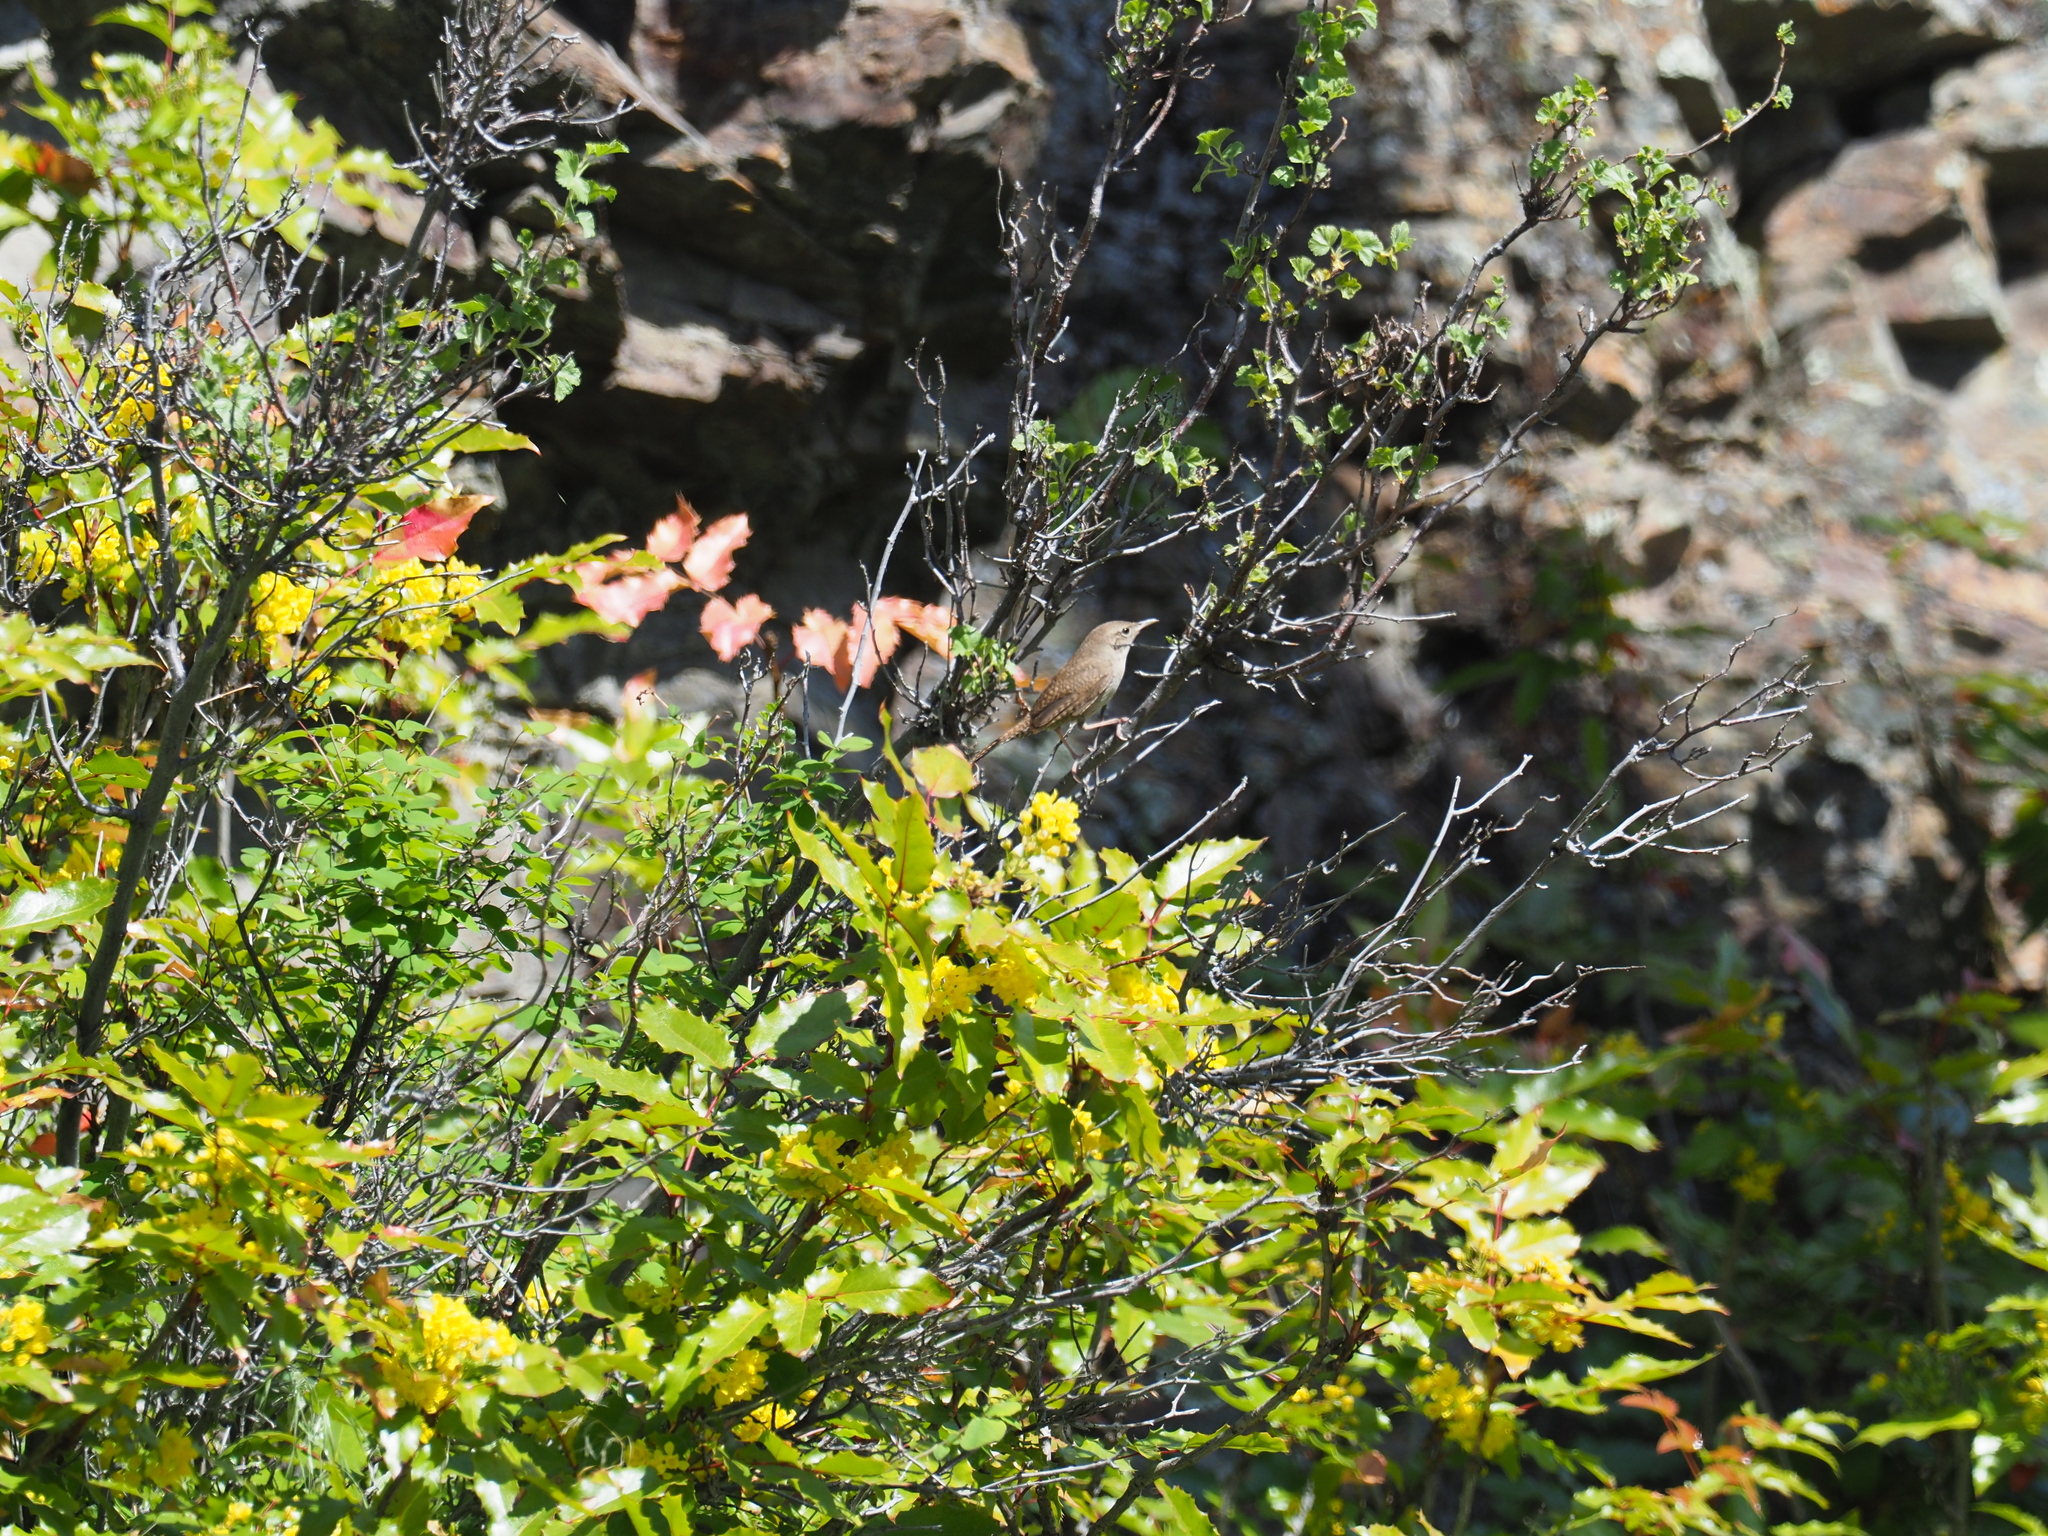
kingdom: Animalia
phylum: Chordata
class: Aves
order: Passeriformes
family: Troglodytidae
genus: Troglodytes
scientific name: Troglodytes aedon
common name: House wren
